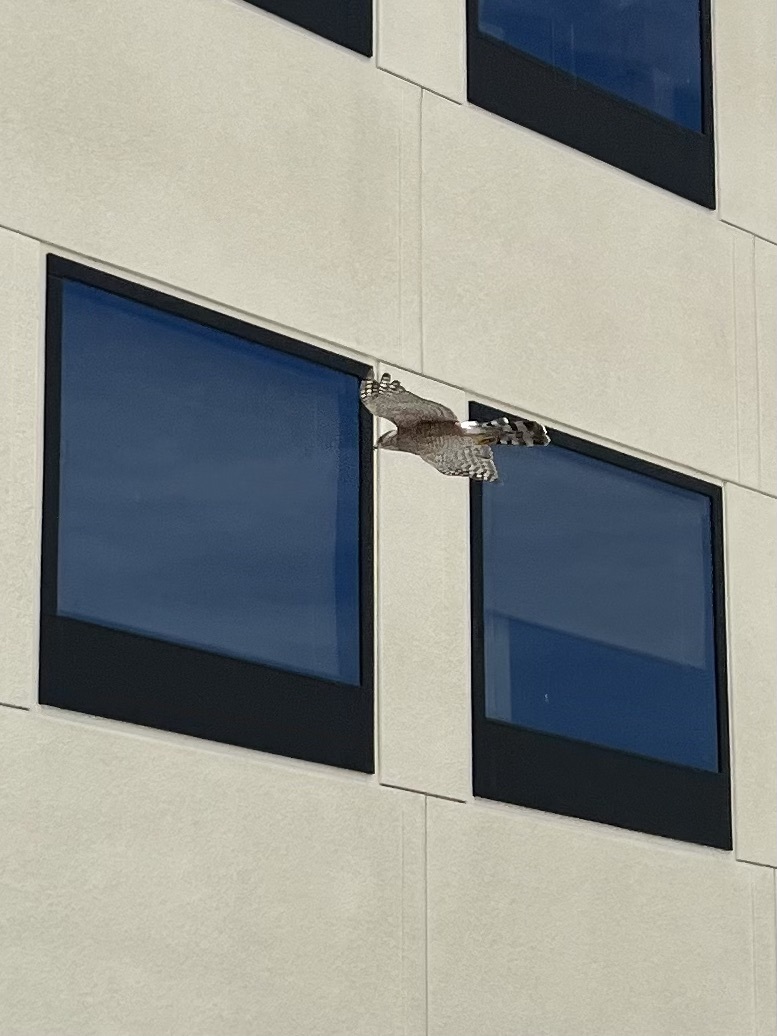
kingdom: Animalia
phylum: Chordata
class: Aves
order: Accipitriformes
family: Accipitridae
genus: Accipiter
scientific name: Accipiter cooperii
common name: Cooper's hawk
